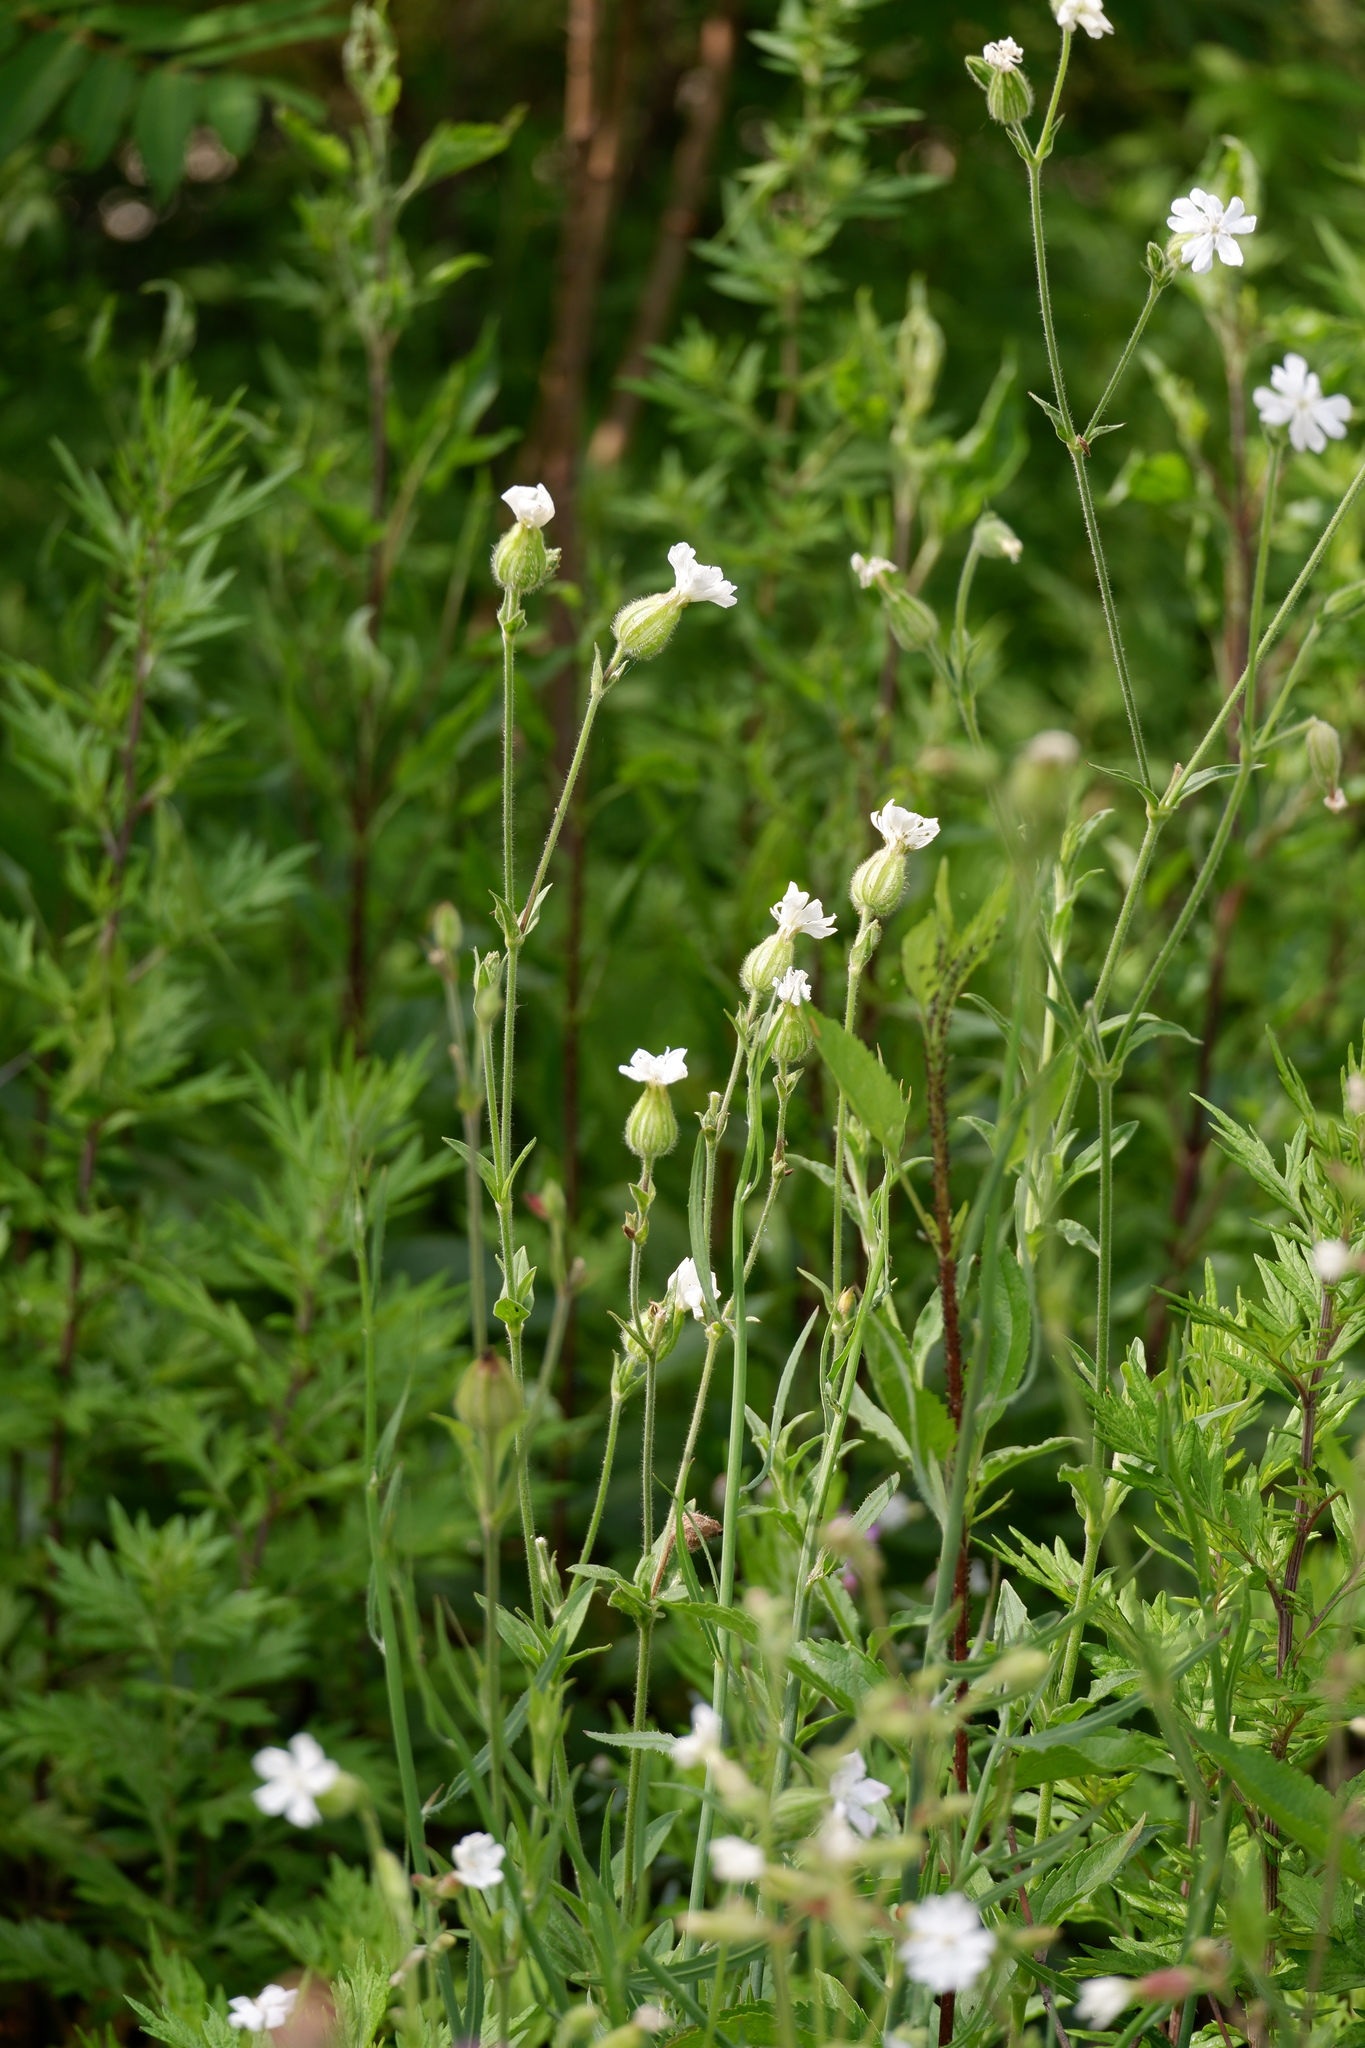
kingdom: Plantae
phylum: Tracheophyta
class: Magnoliopsida
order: Caryophyllales
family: Caryophyllaceae
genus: Silene
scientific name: Silene latifolia
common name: White campion
